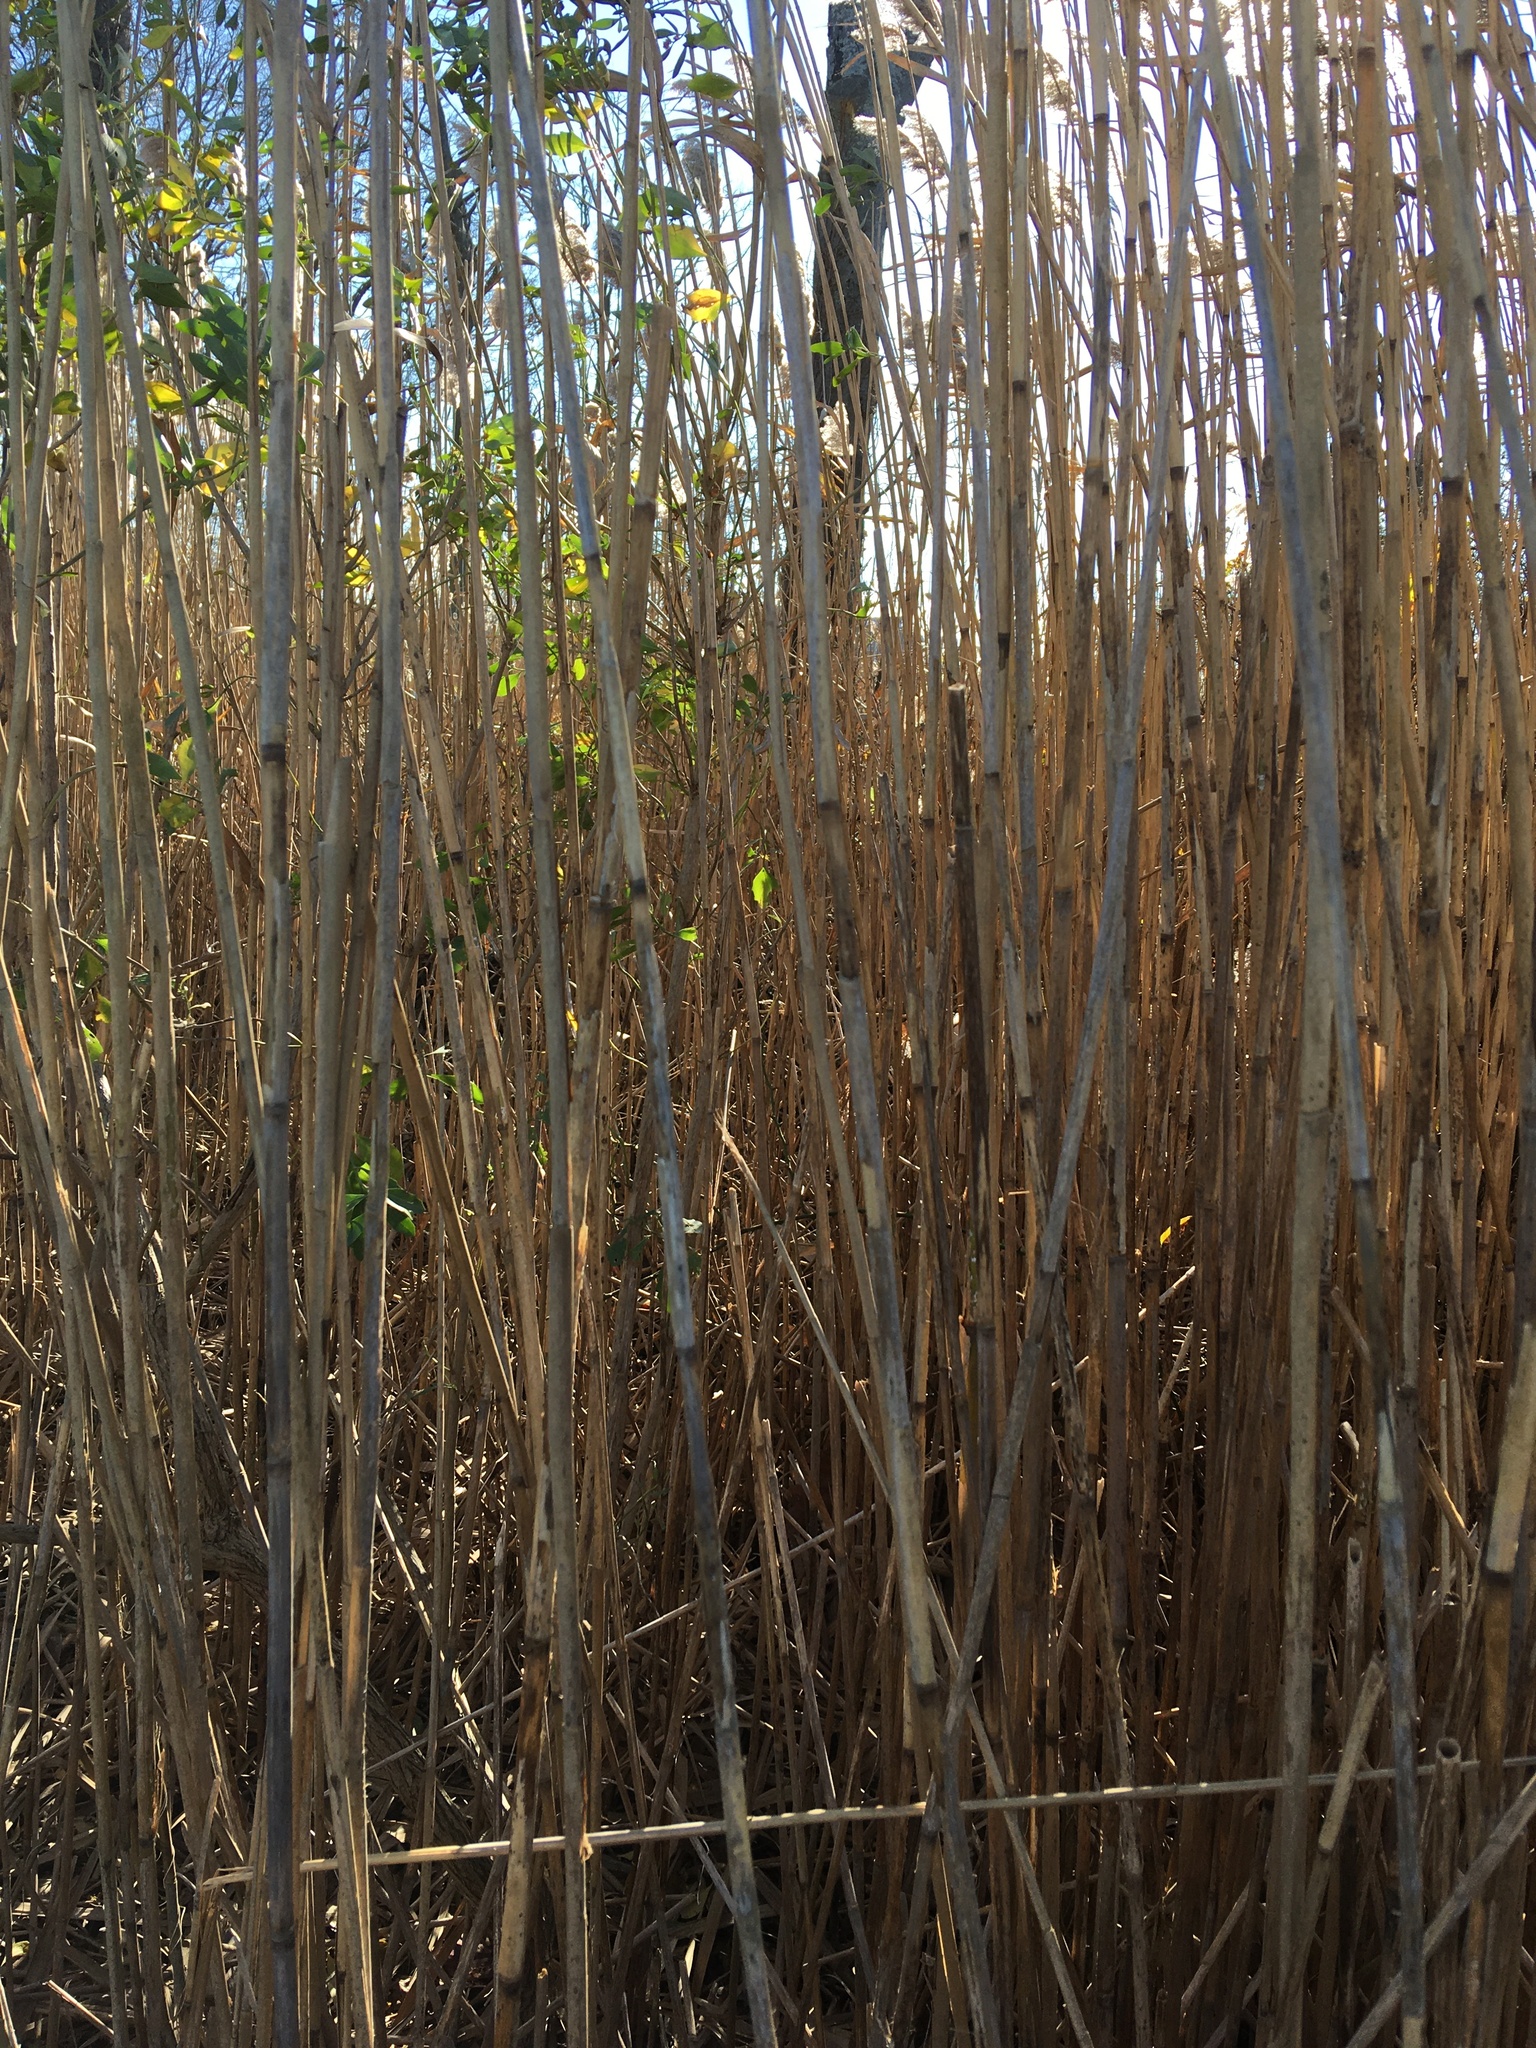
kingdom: Plantae
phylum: Tracheophyta
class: Liliopsida
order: Poales
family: Poaceae
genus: Phragmites
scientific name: Phragmites australis
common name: Common reed
